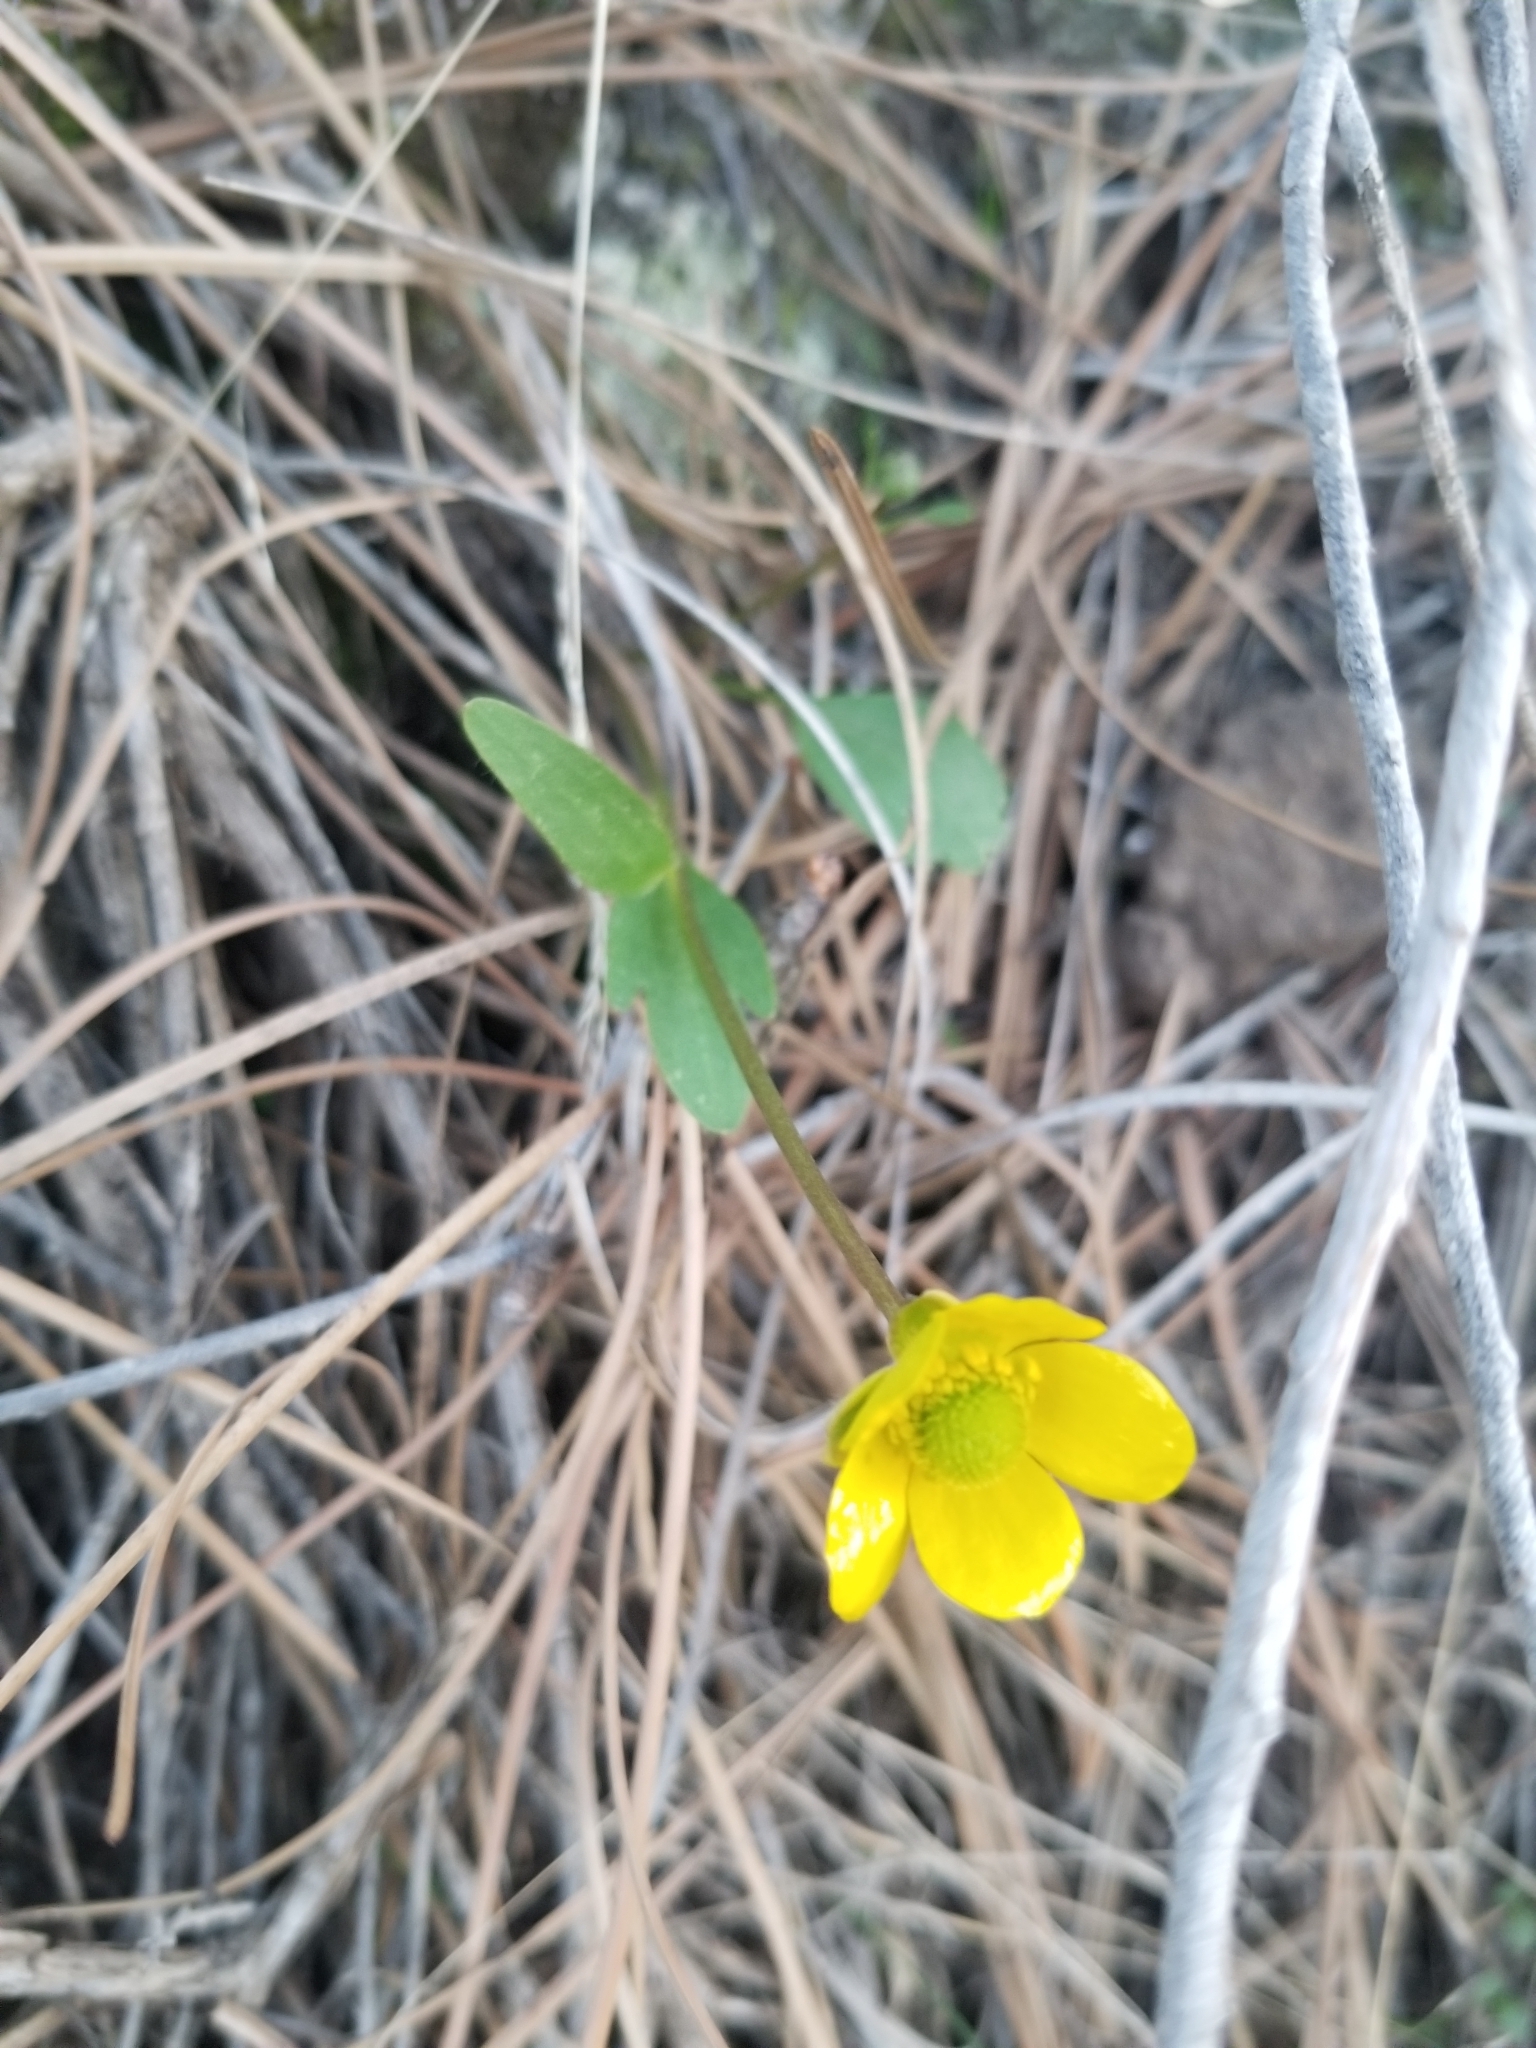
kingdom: Plantae
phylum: Tracheophyta
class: Magnoliopsida
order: Ranunculales
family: Ranunculaceae
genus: Ranunculus
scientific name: Ranunculus glaberrimus
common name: Sagebrush buttercup
